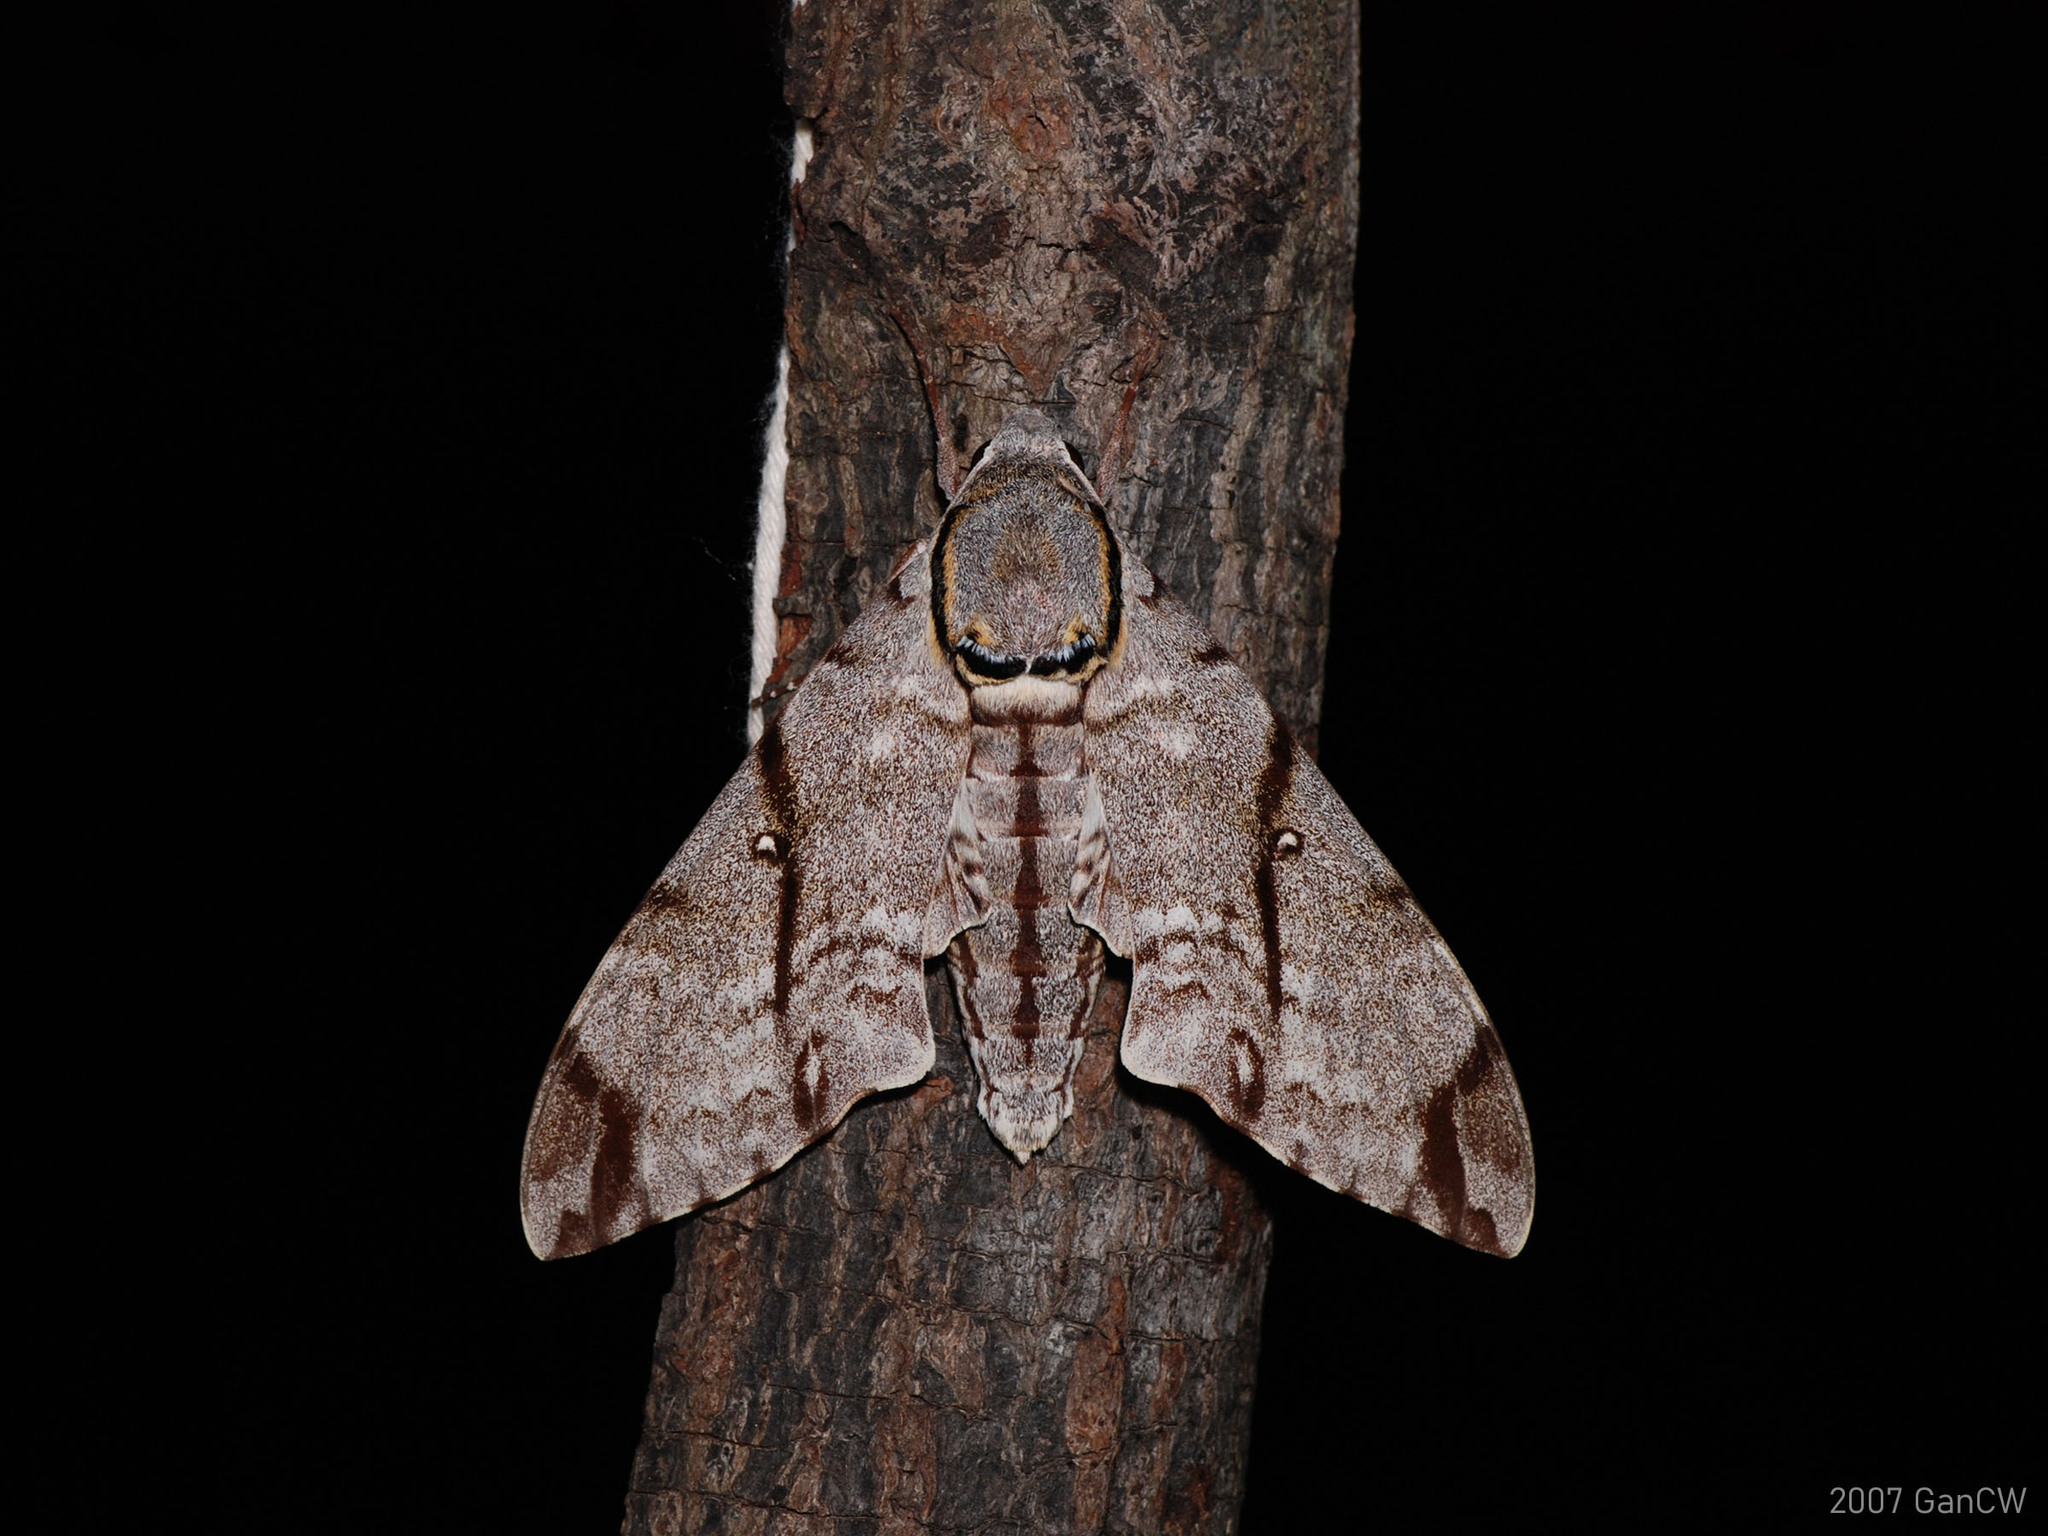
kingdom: Animalia
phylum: Arthropoda
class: Insecta
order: Lepidoptera
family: Sphingidae
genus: Notonagemia
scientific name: Notonagemia analis
